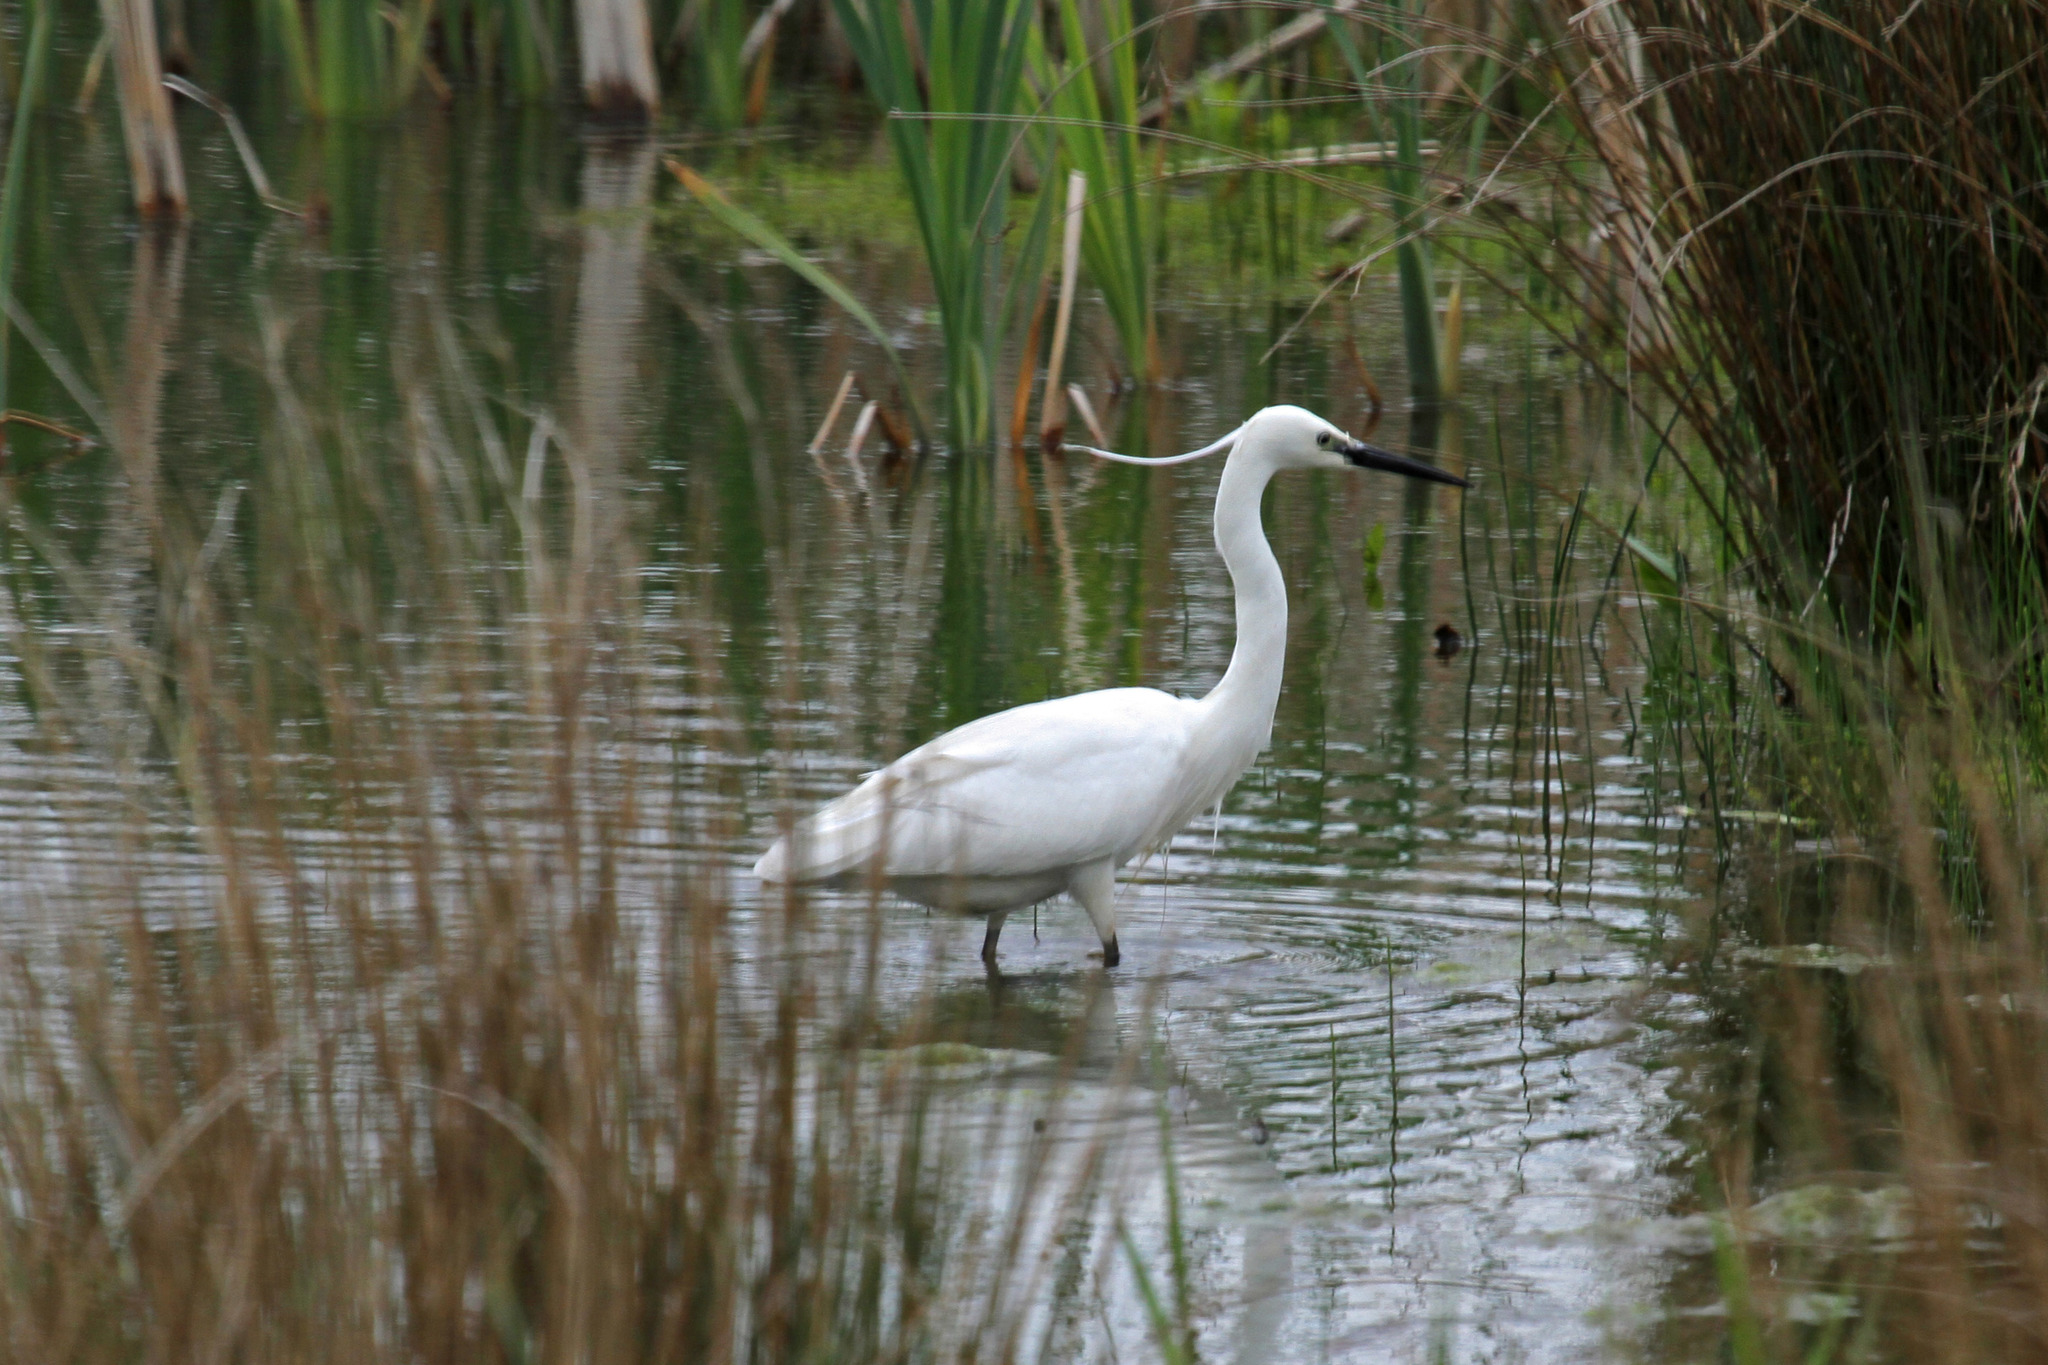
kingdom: Animalia
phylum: Chordata
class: Aves
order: Pelecaniformes
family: Ardeidae
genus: Egretta
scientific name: Egretta garzetta
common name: Little egret
